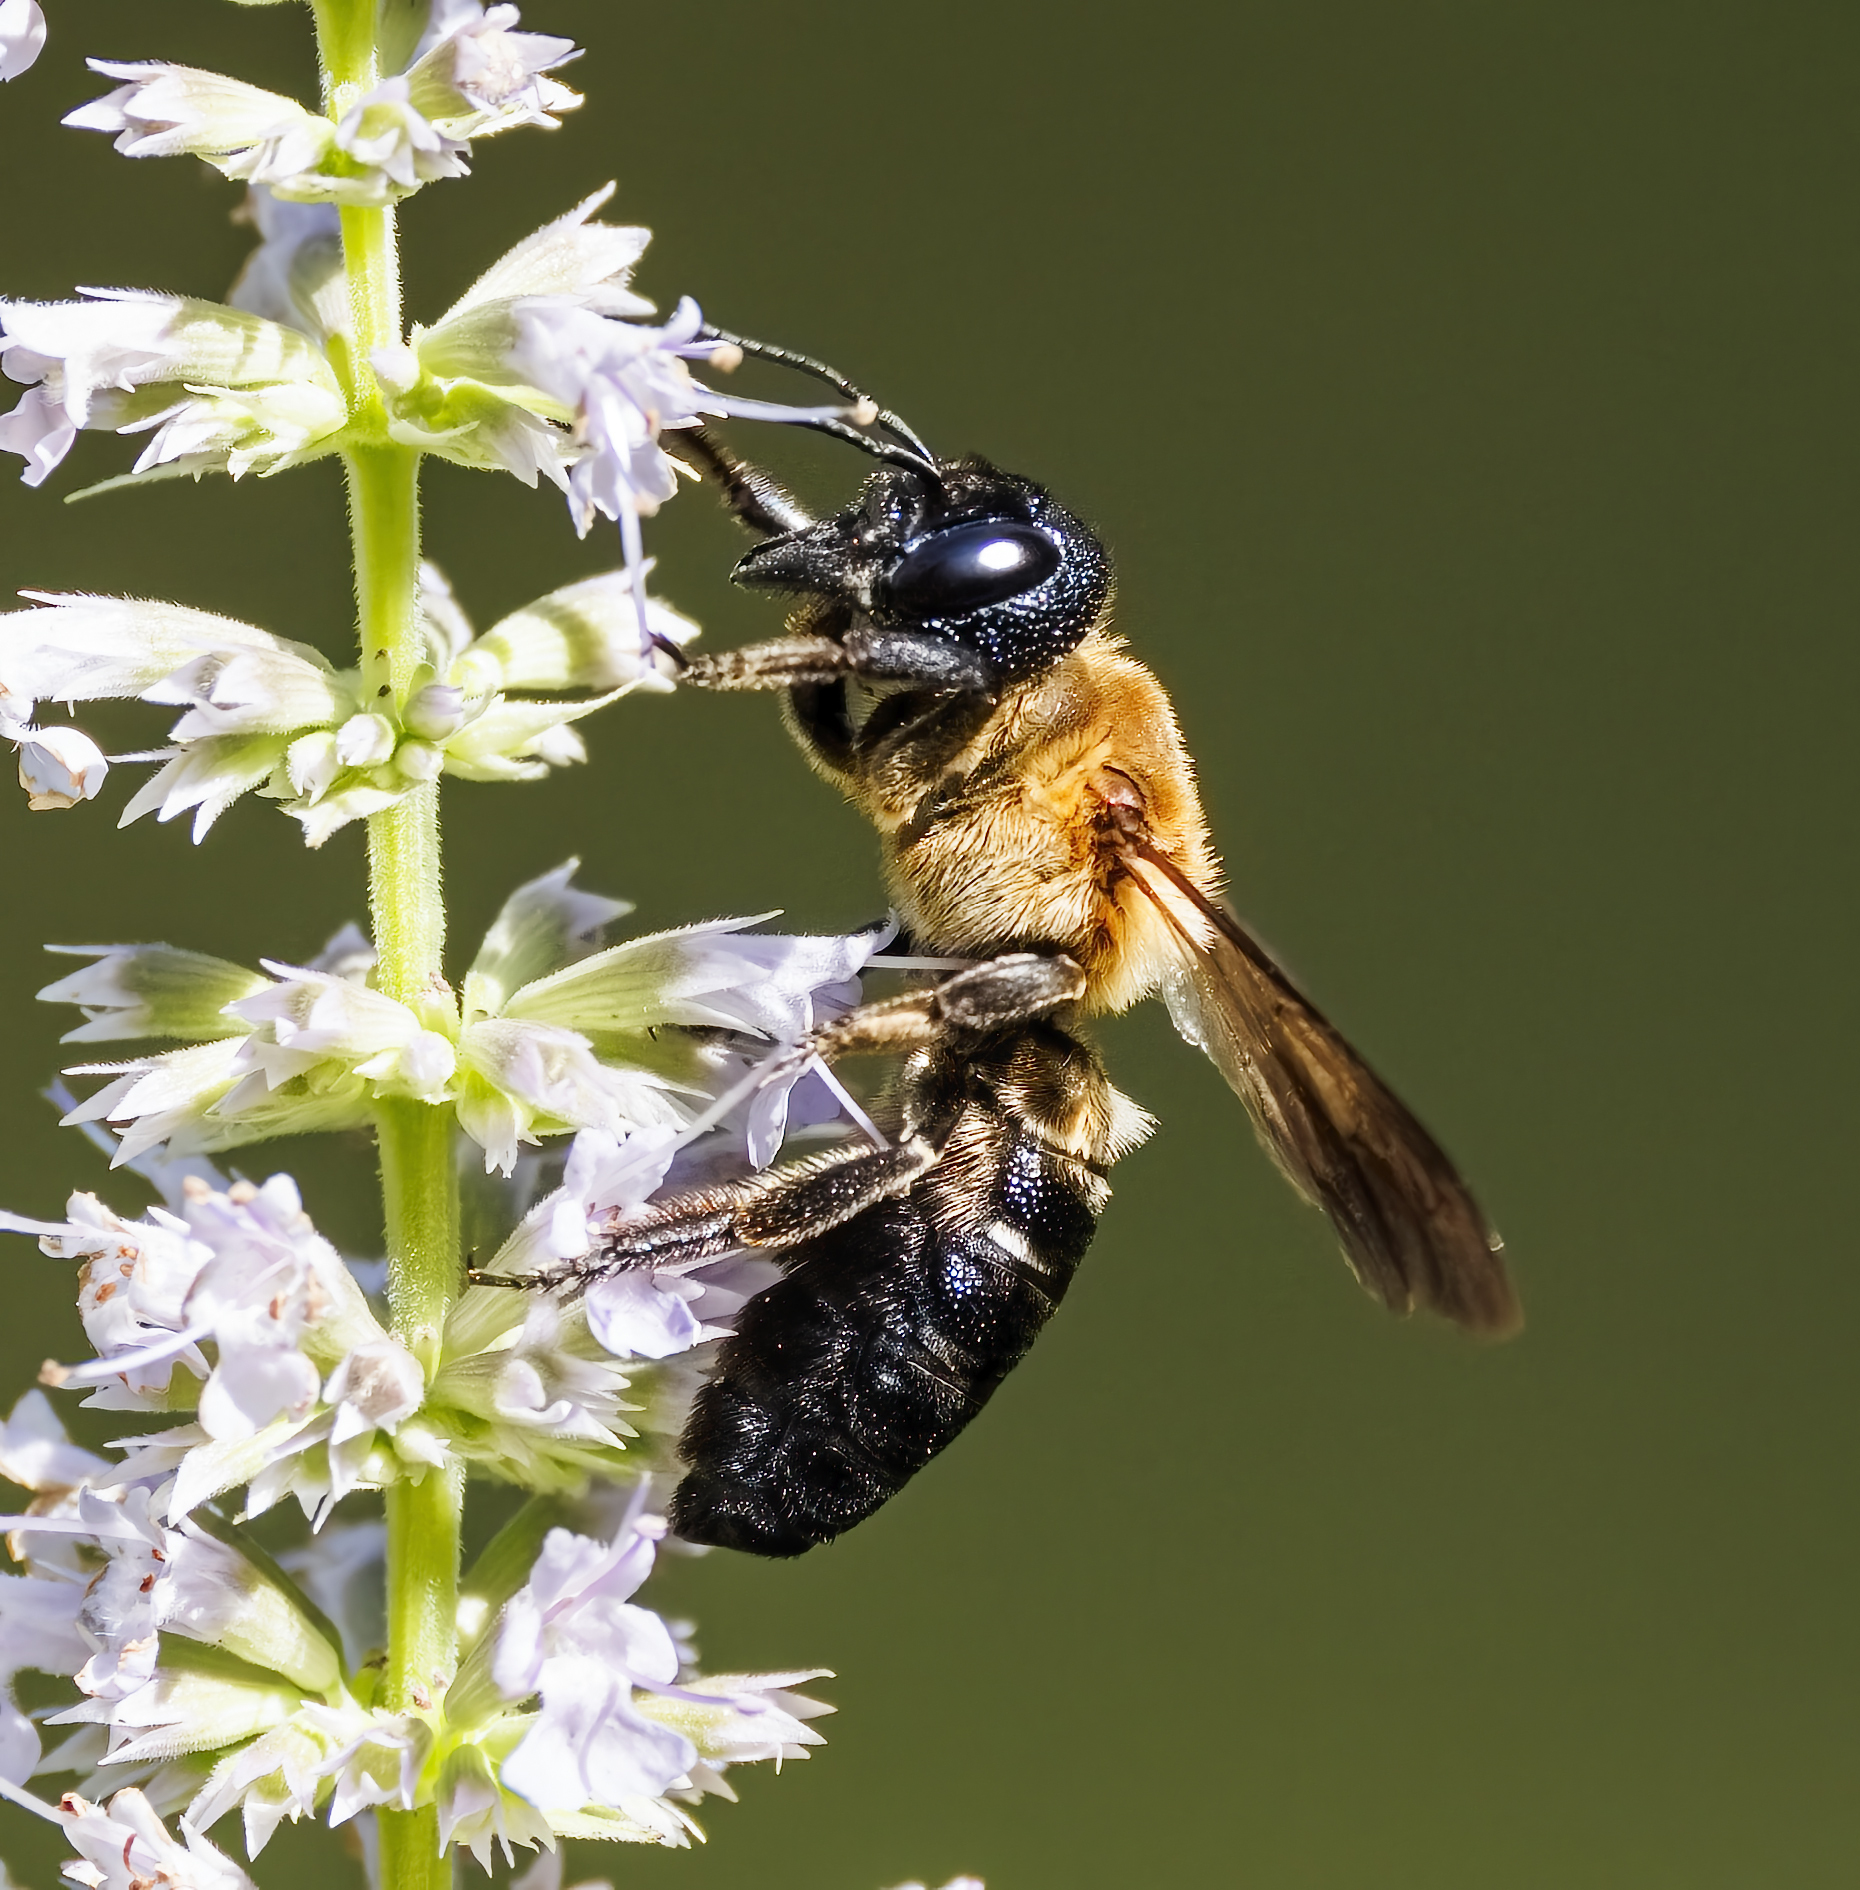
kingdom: Animalia
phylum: Arthropoda
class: Insecta
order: Hymenoptera
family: Megachilidae
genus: Megachile
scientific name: Megachile sculpturalis
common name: Sculptured resin bee
